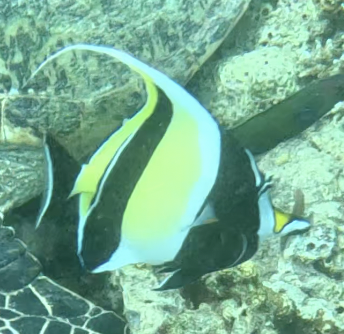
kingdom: Animalia
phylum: Chordata
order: Perciformes
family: Zanclidae
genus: Zanclus
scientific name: Zanclus cornutus
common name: Moorish idol
